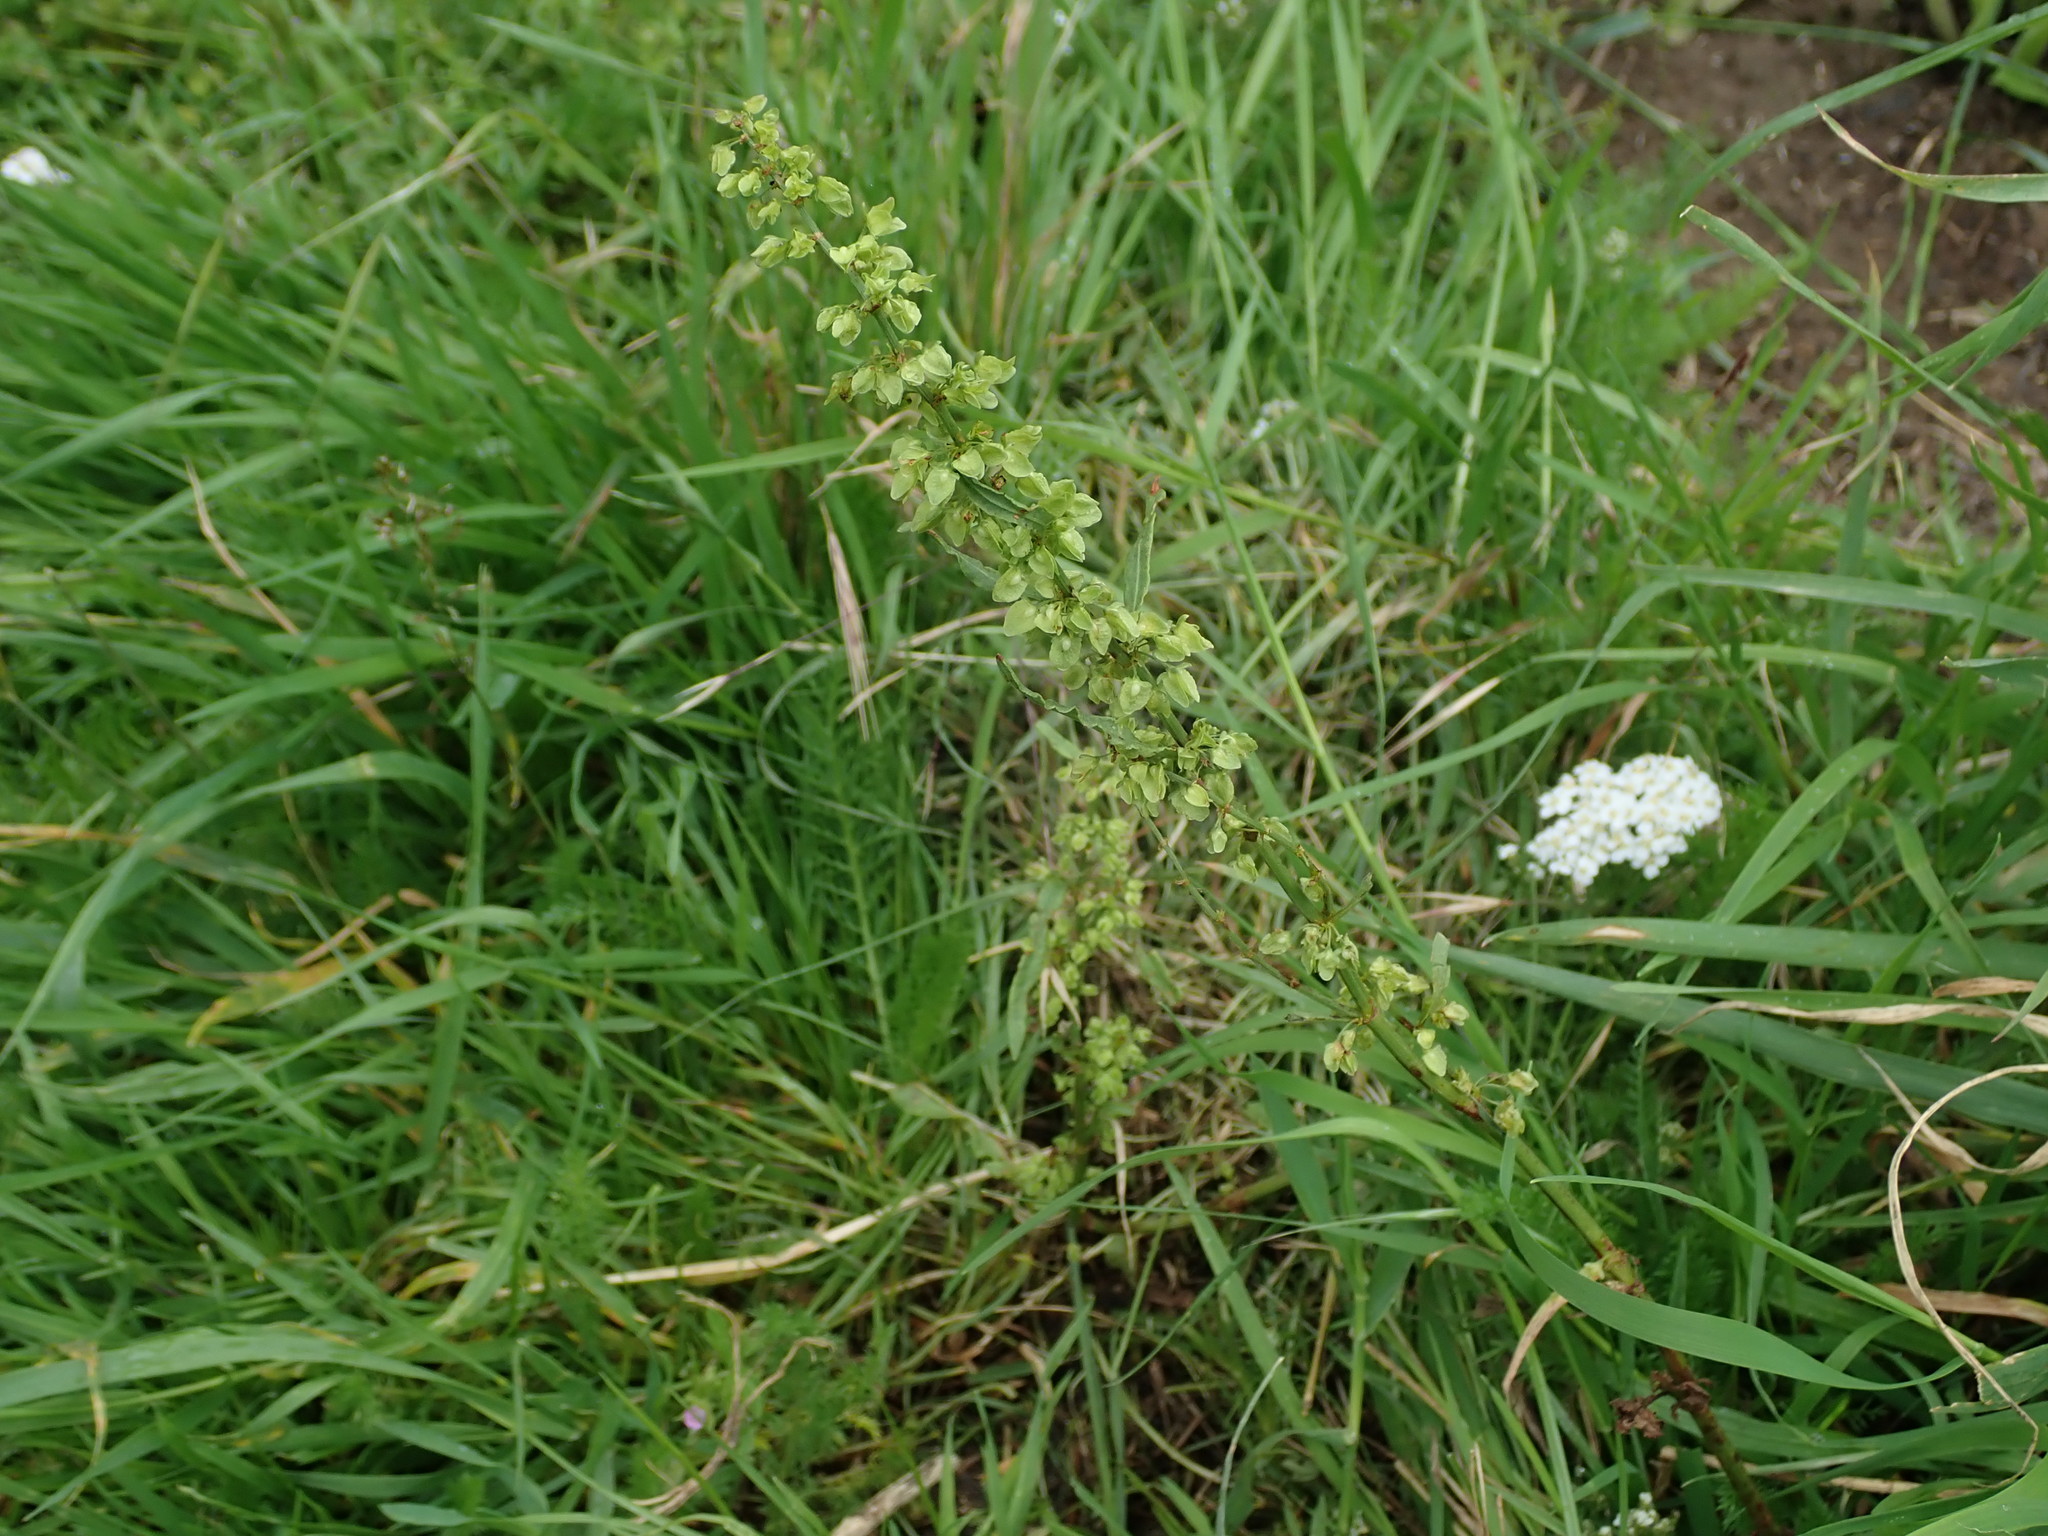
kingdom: Plantae
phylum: Tracheophyta
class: Magnoliopsida
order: Caryophyllales
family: Polygonaceae
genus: Rumex
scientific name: Rumex crispus
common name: Curled dock
